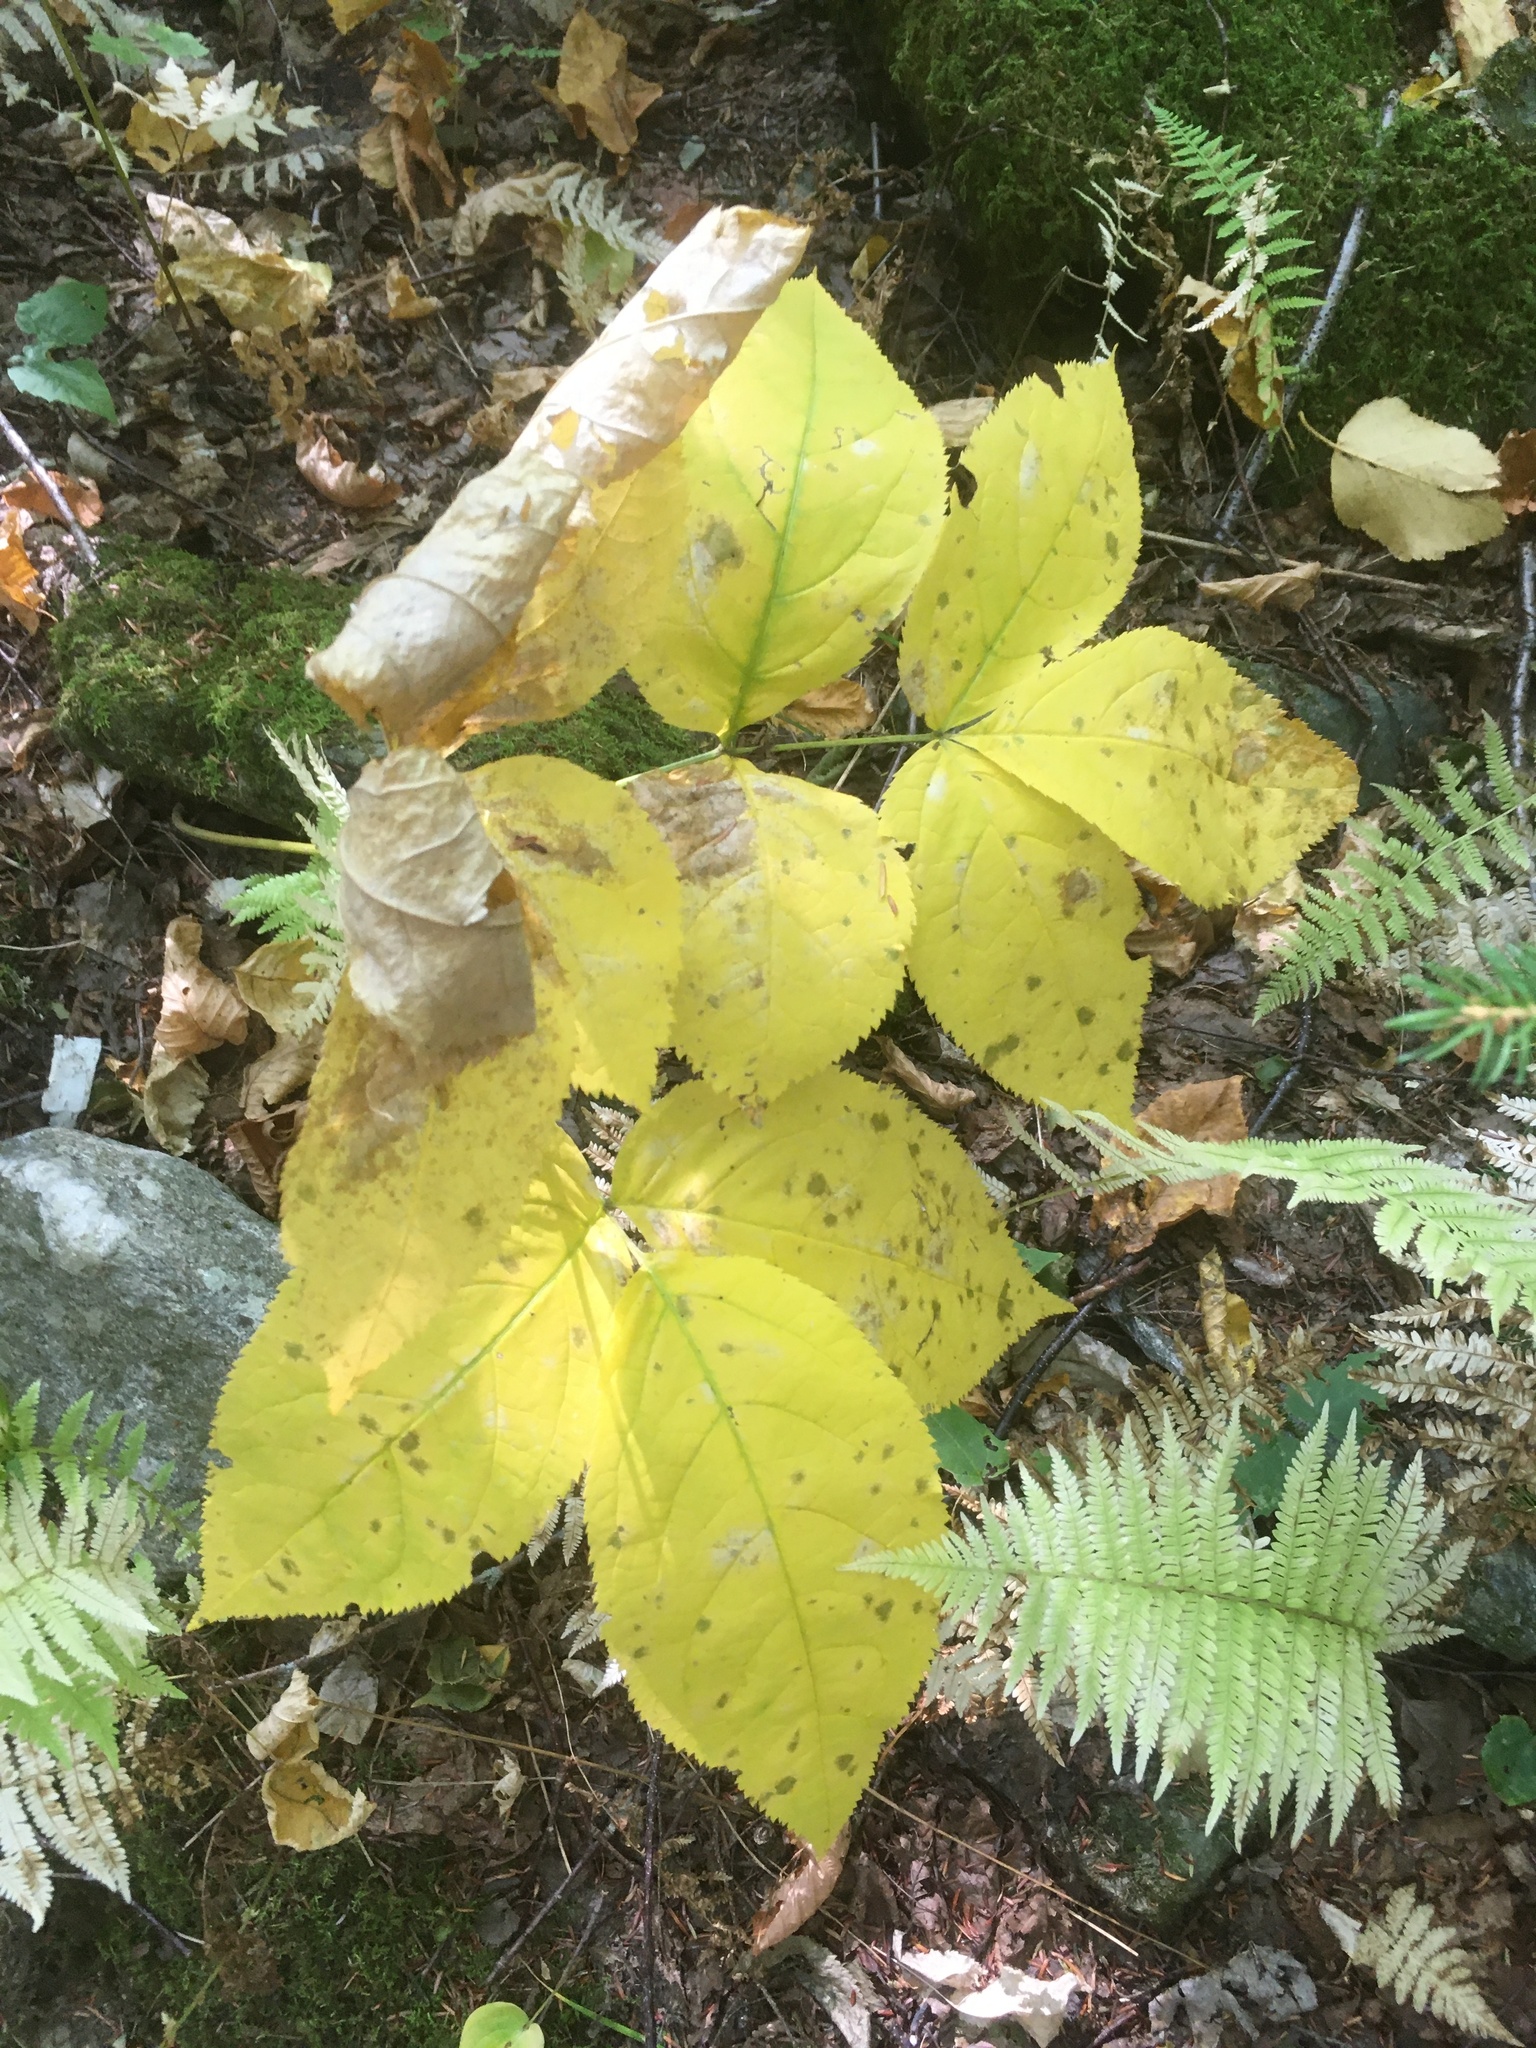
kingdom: Plantae
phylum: Tracheophyta
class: Magnoliopsida
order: Apiales
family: Araliaceae
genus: Aralia
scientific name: Aralia nudicaulis
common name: Wild sarsaparilla
